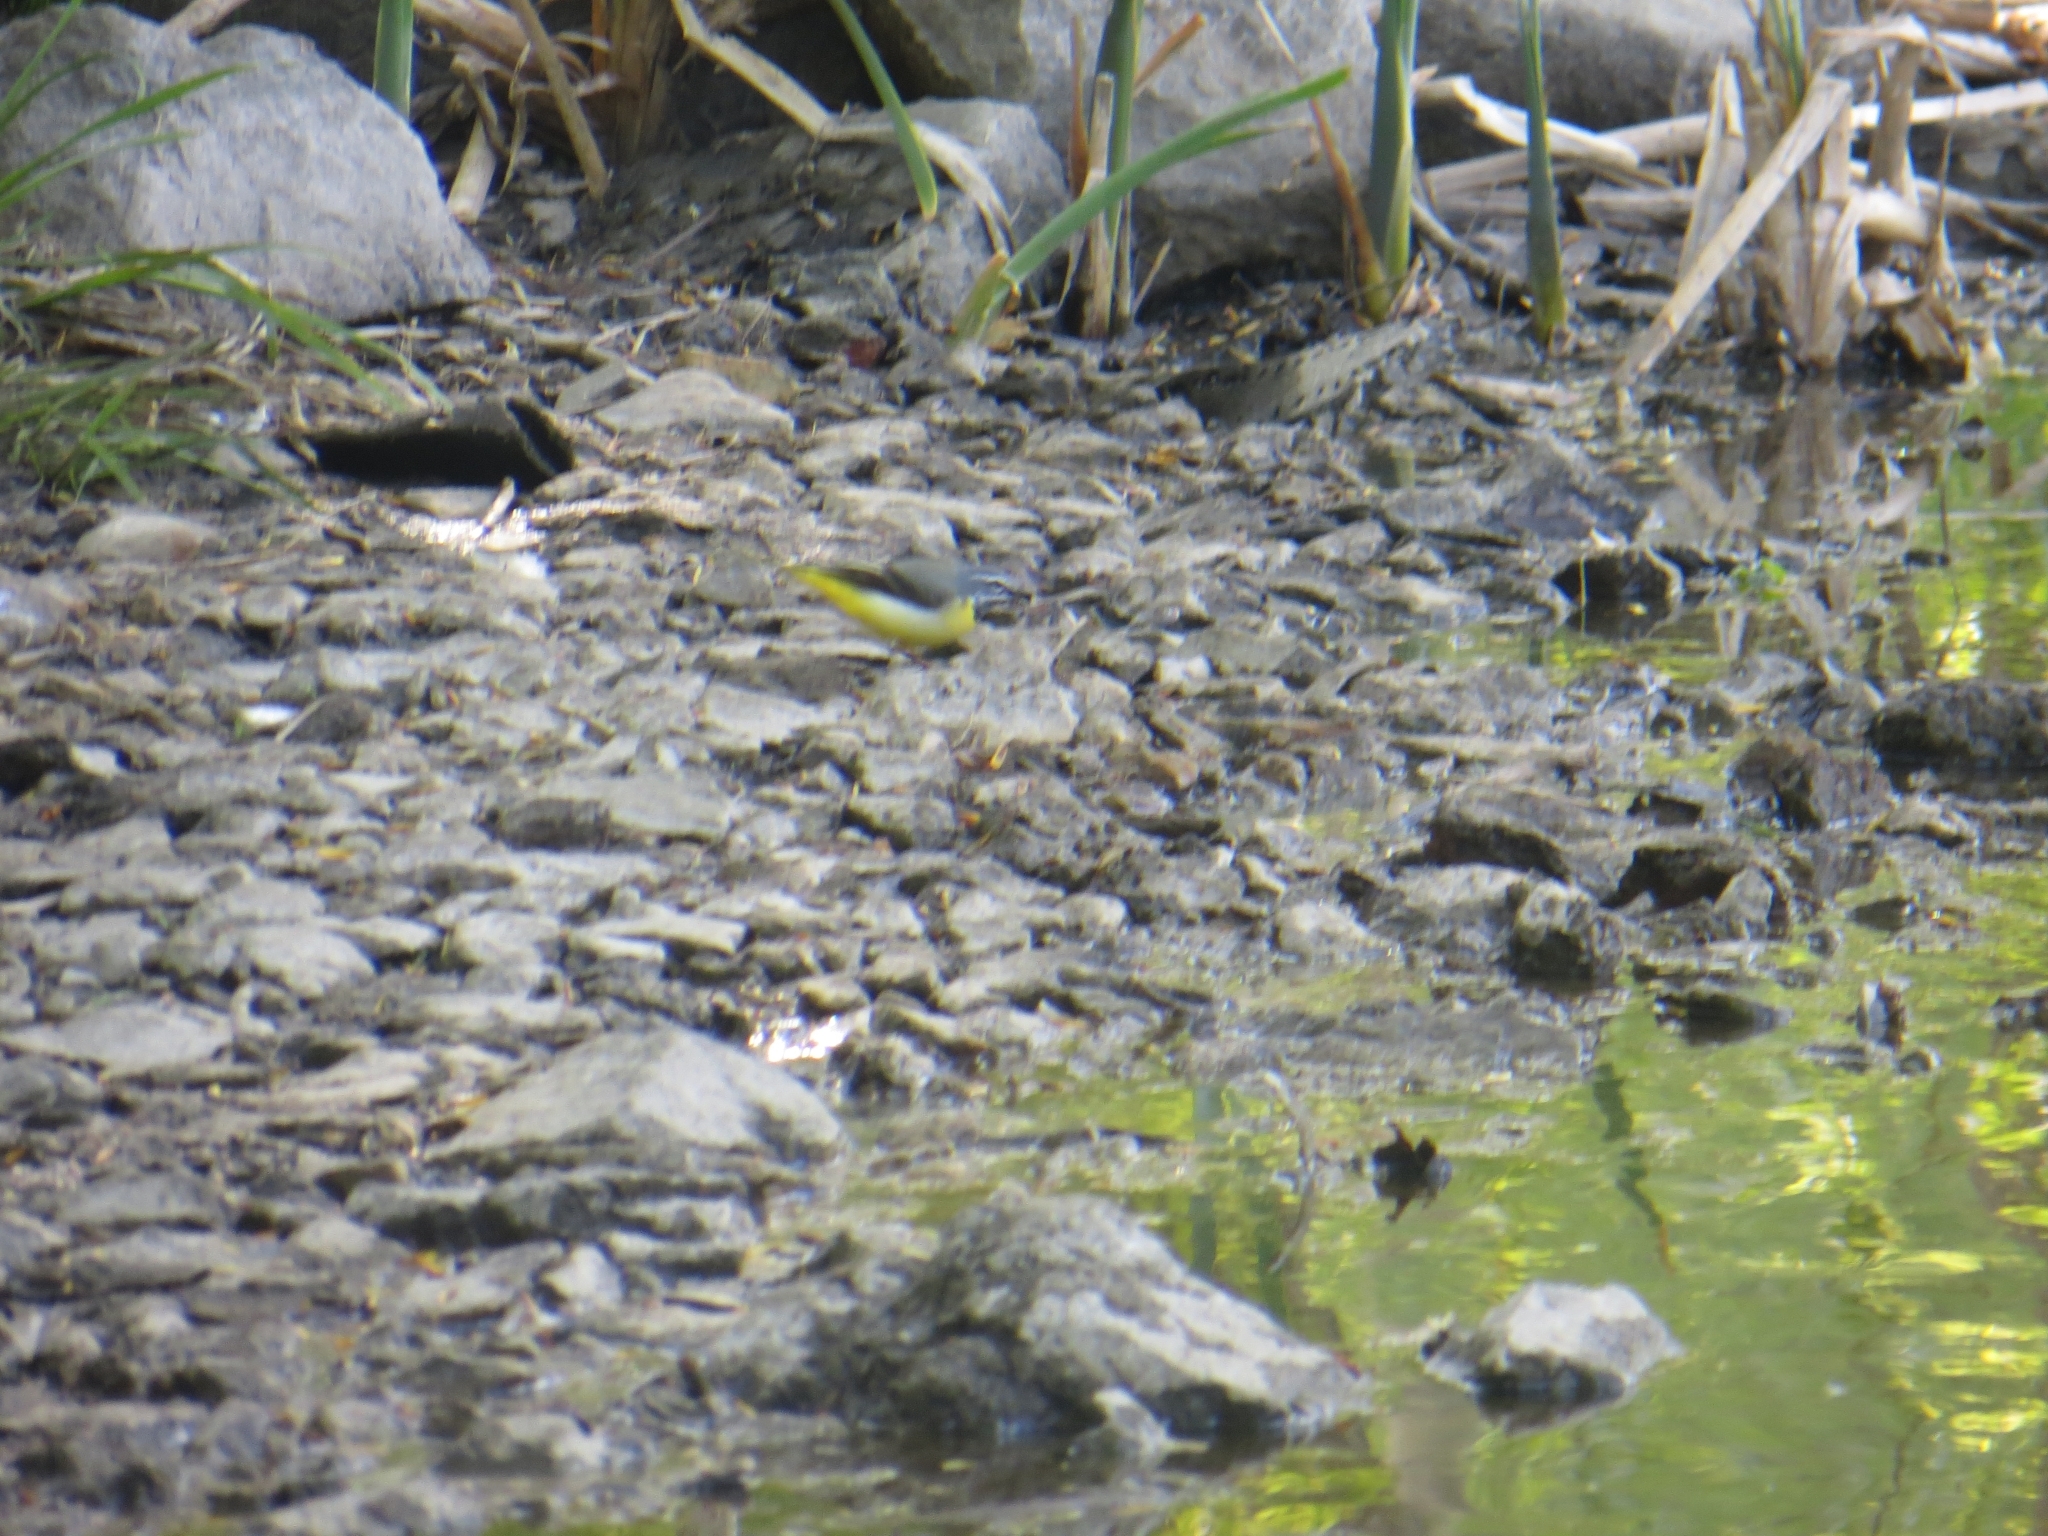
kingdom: Animalia
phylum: Chordata
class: Aves
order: Passeriformes
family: Motacillidae
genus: Motacilla
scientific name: Motacilla cinerea
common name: Grey wagtail
